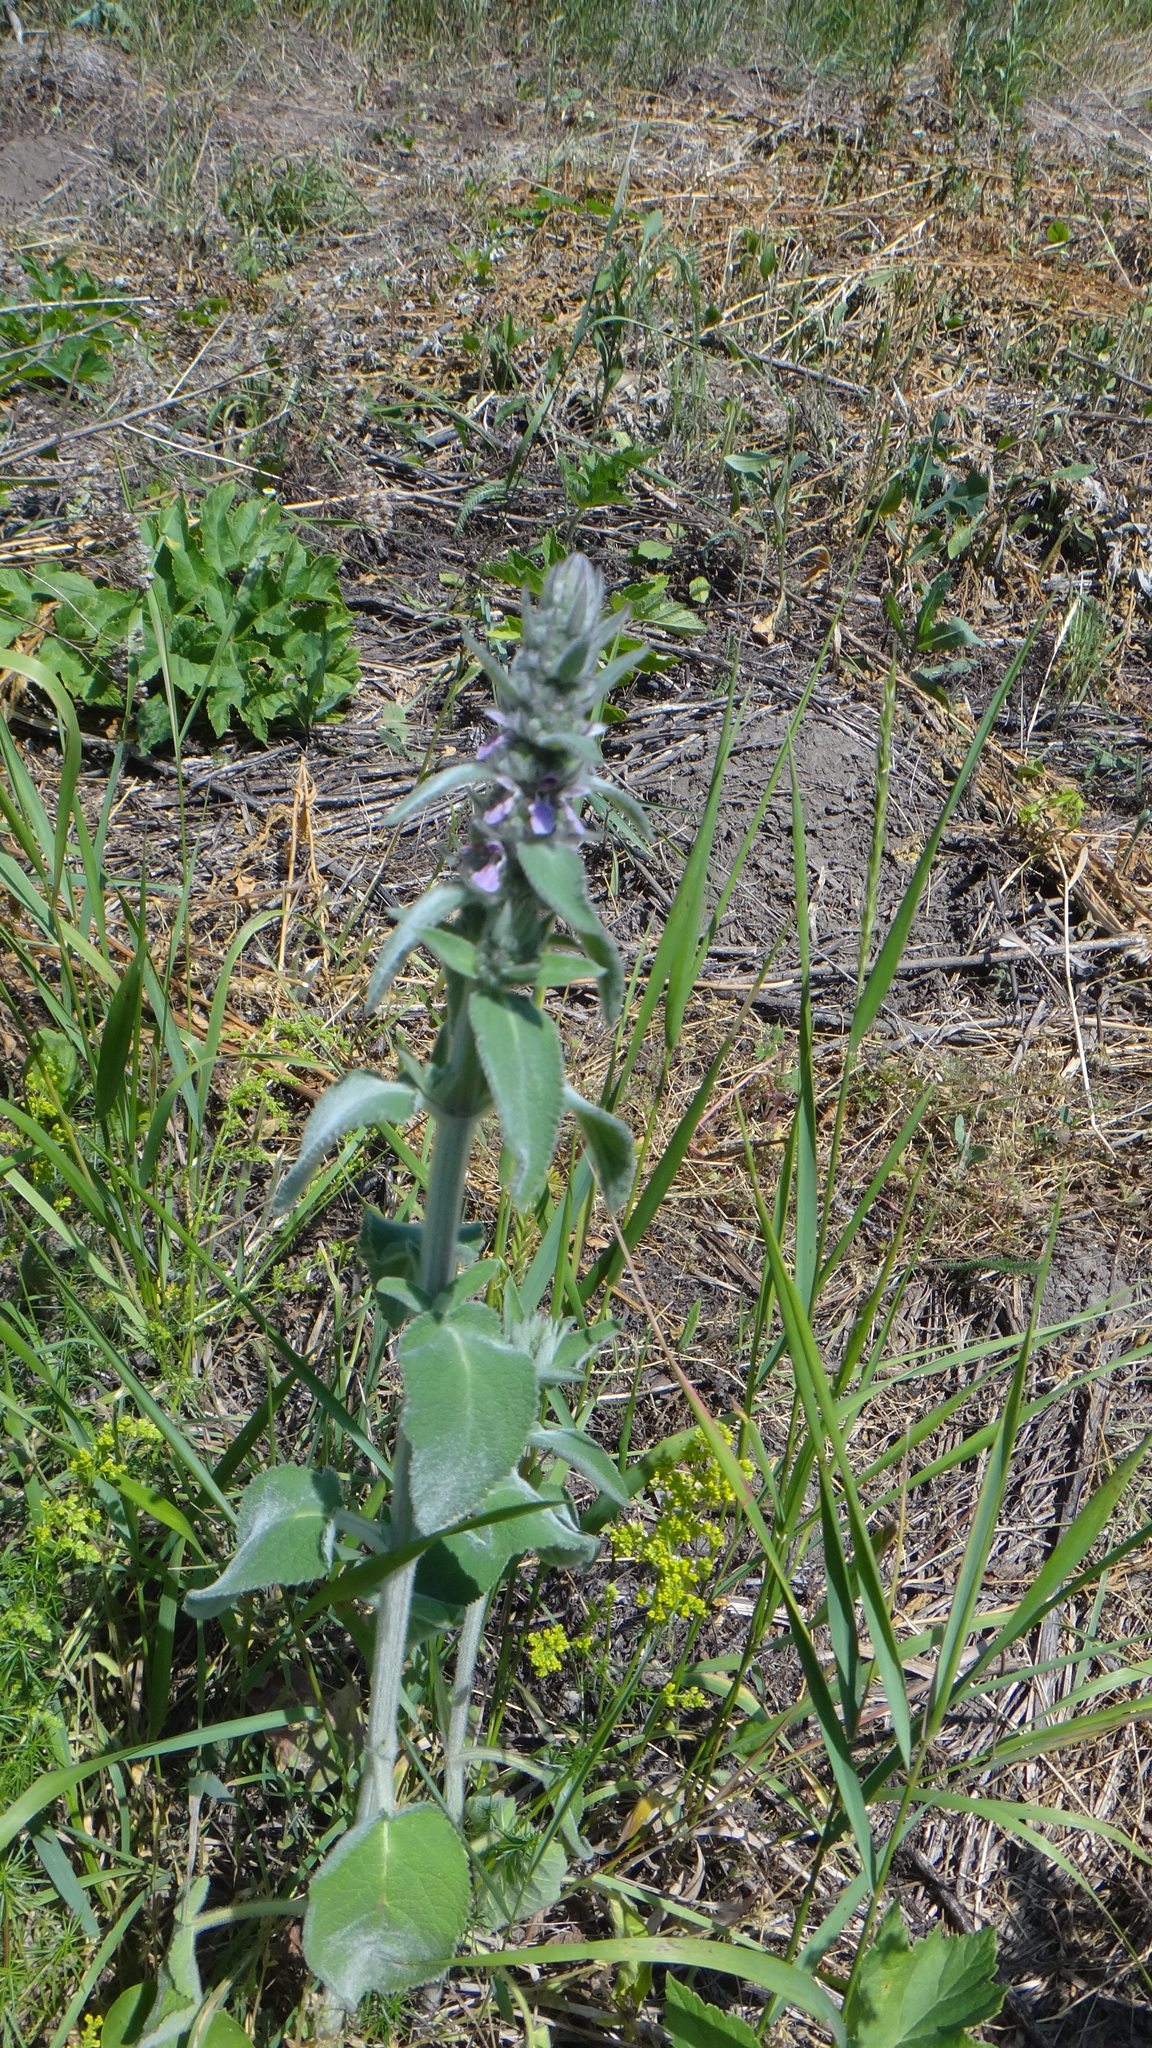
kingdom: Plantae
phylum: Tracheophyta
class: Magnoliopsida
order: Lamiales
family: Lamiaceae
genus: Stachys
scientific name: Stachys germanica
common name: Downy woundwort
